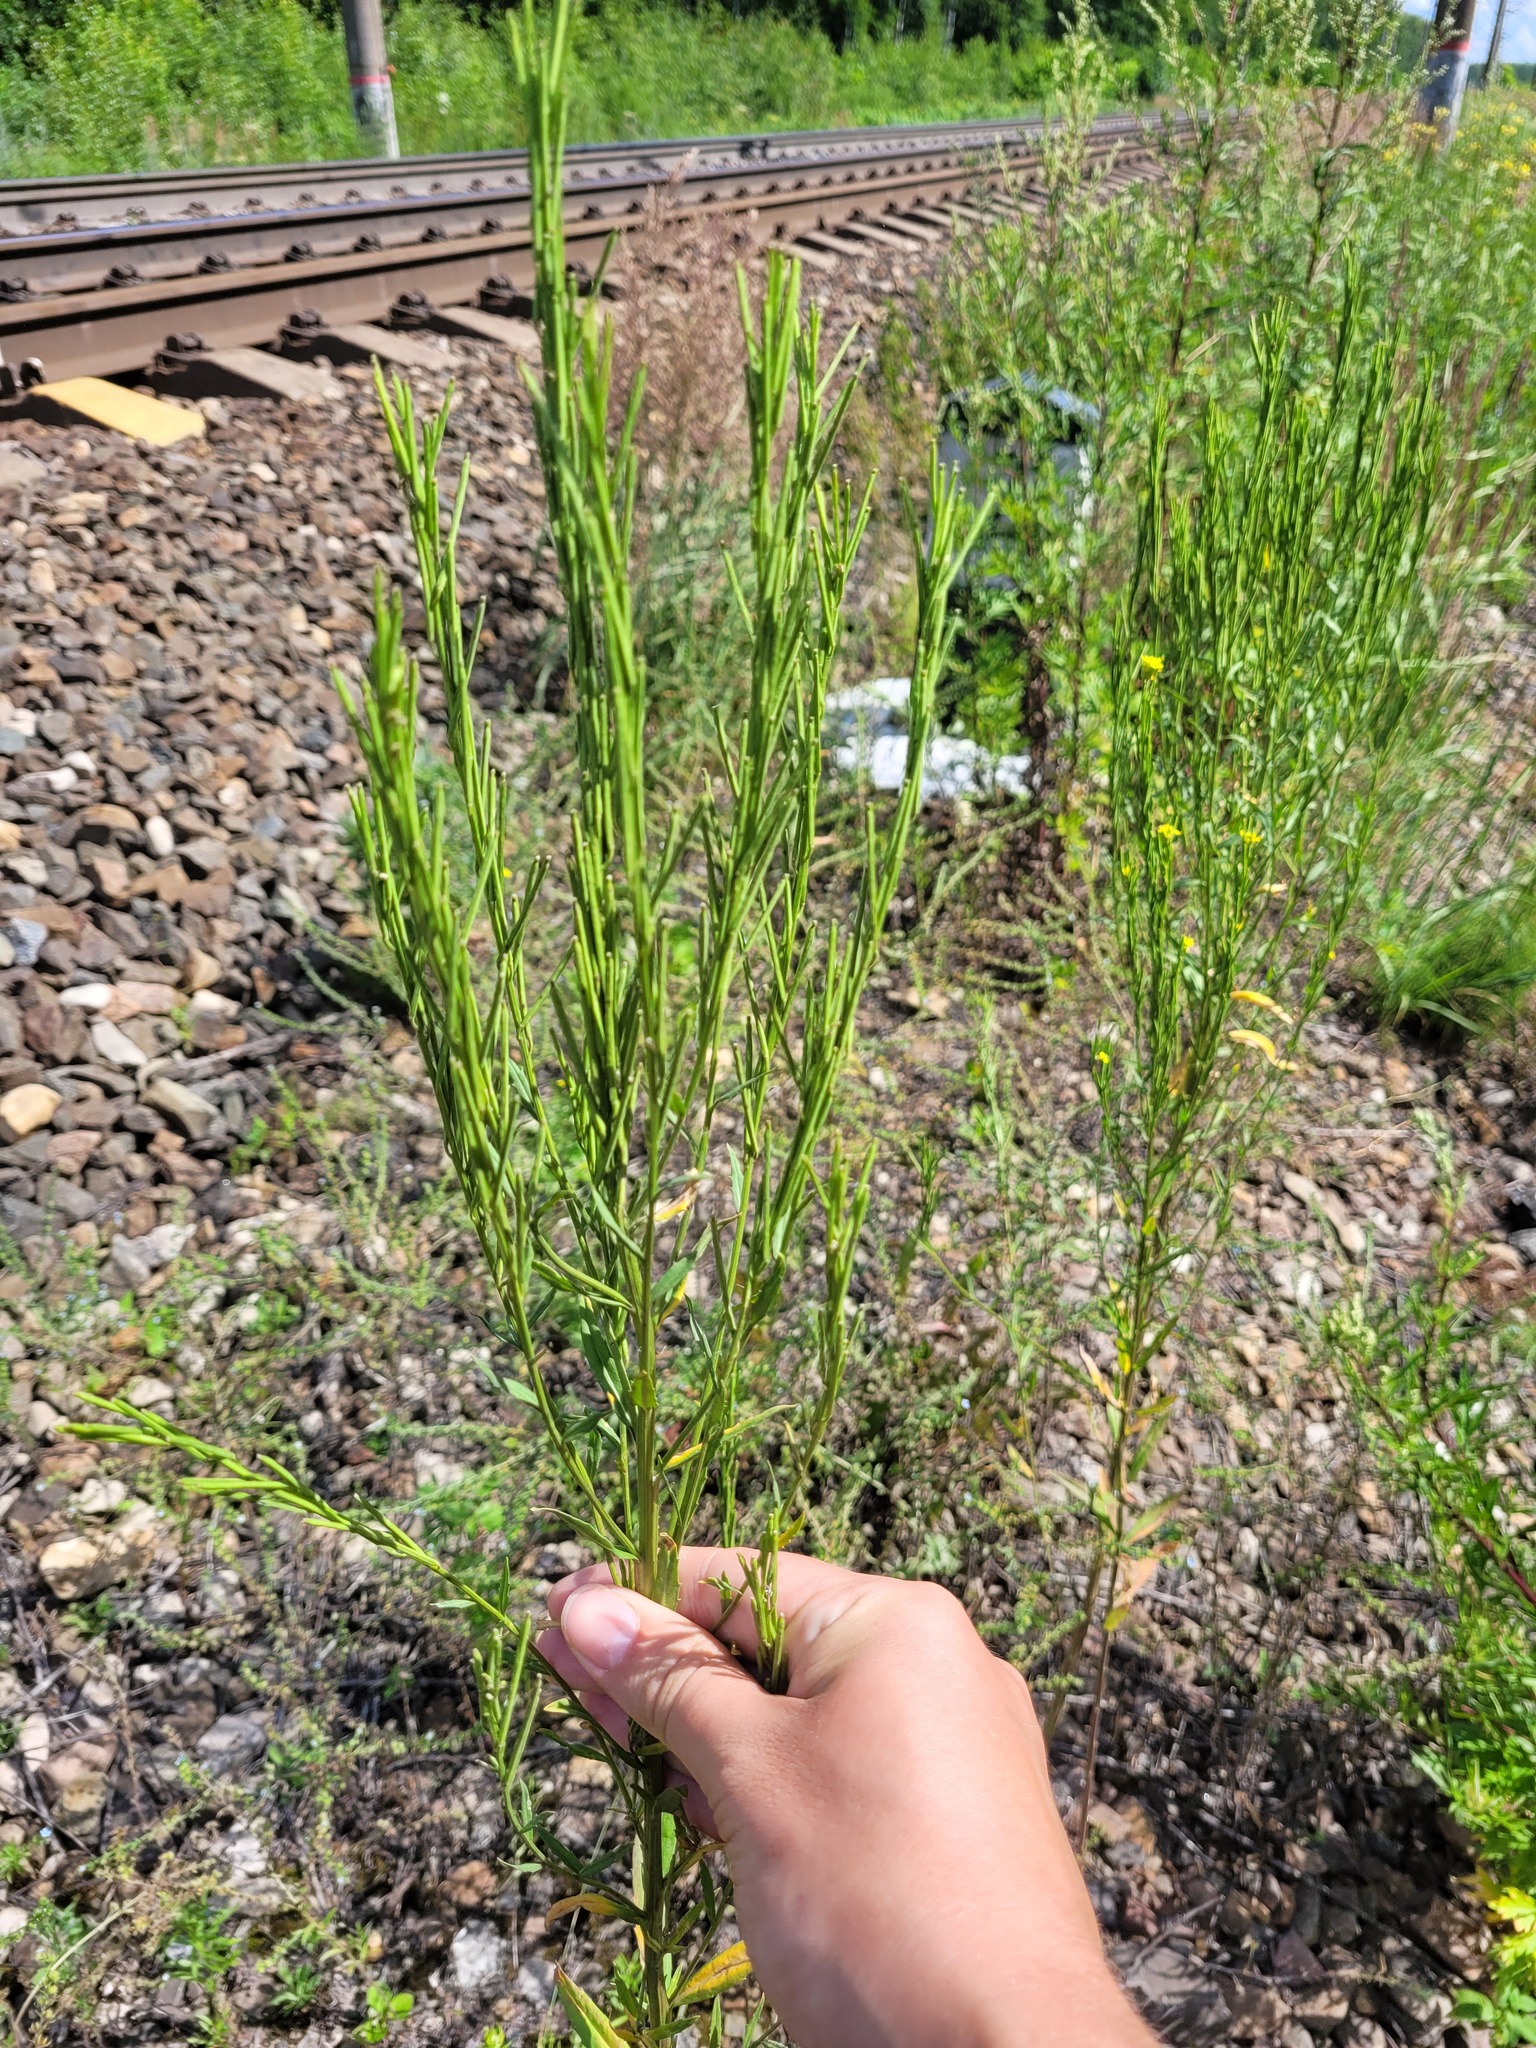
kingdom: Plantae
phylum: Tracheophyta
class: Magnoliopsida
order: Brassicales
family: Brassicaceae
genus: Erysimum
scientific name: Erysimum hieraciifolium
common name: European wallflower
